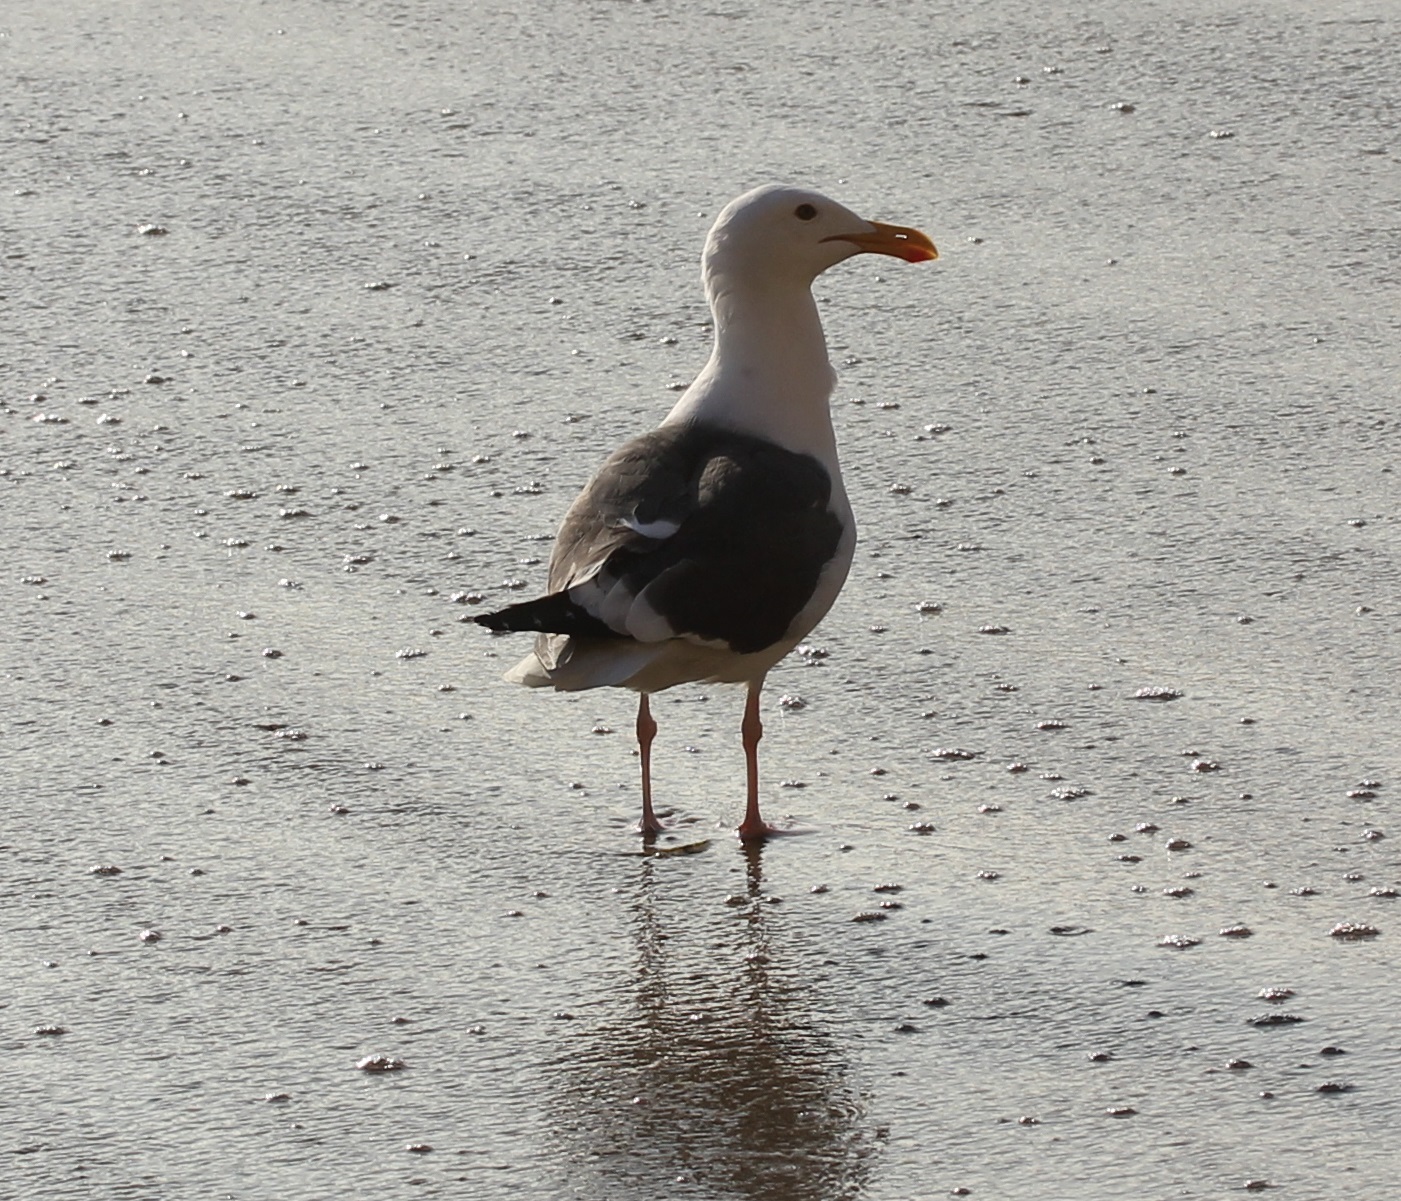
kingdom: Animalia
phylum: Chordata
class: Aves
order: Charadriiformes
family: Laridae
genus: Larus
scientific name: Larus occidentalis
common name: Western gull
